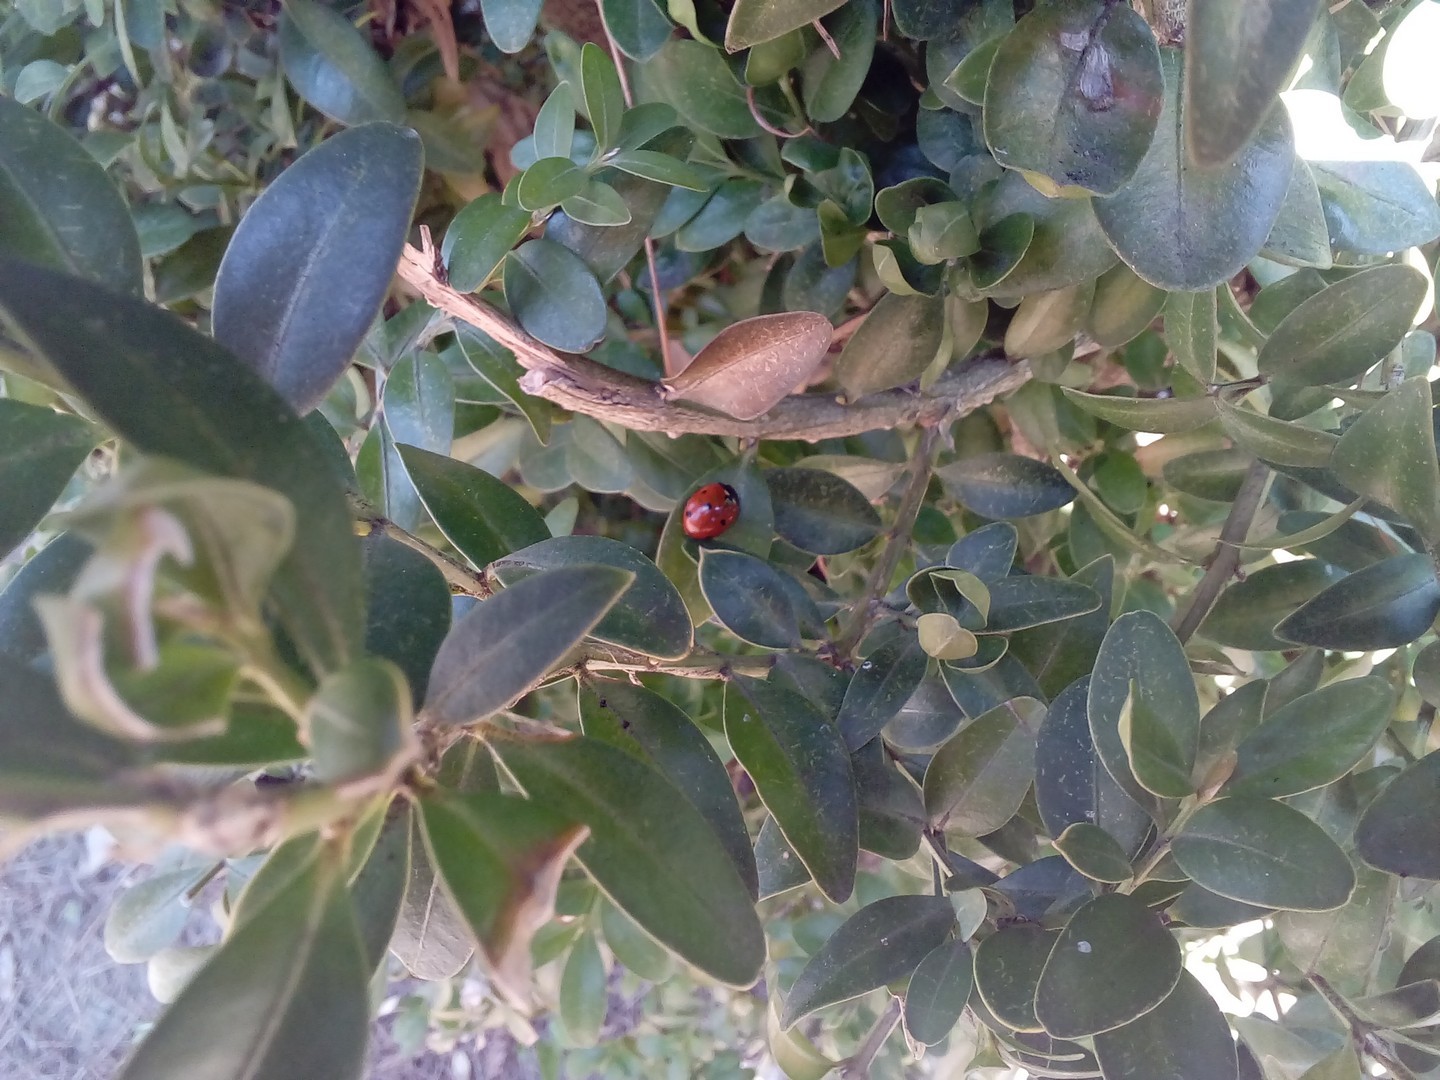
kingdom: Animalia
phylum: Arthropoda
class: Insecta
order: Coleoptera
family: Coccinellidae
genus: Coccinella
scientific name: Coccinella septempunctata
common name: Sevenspotted lady beetle
